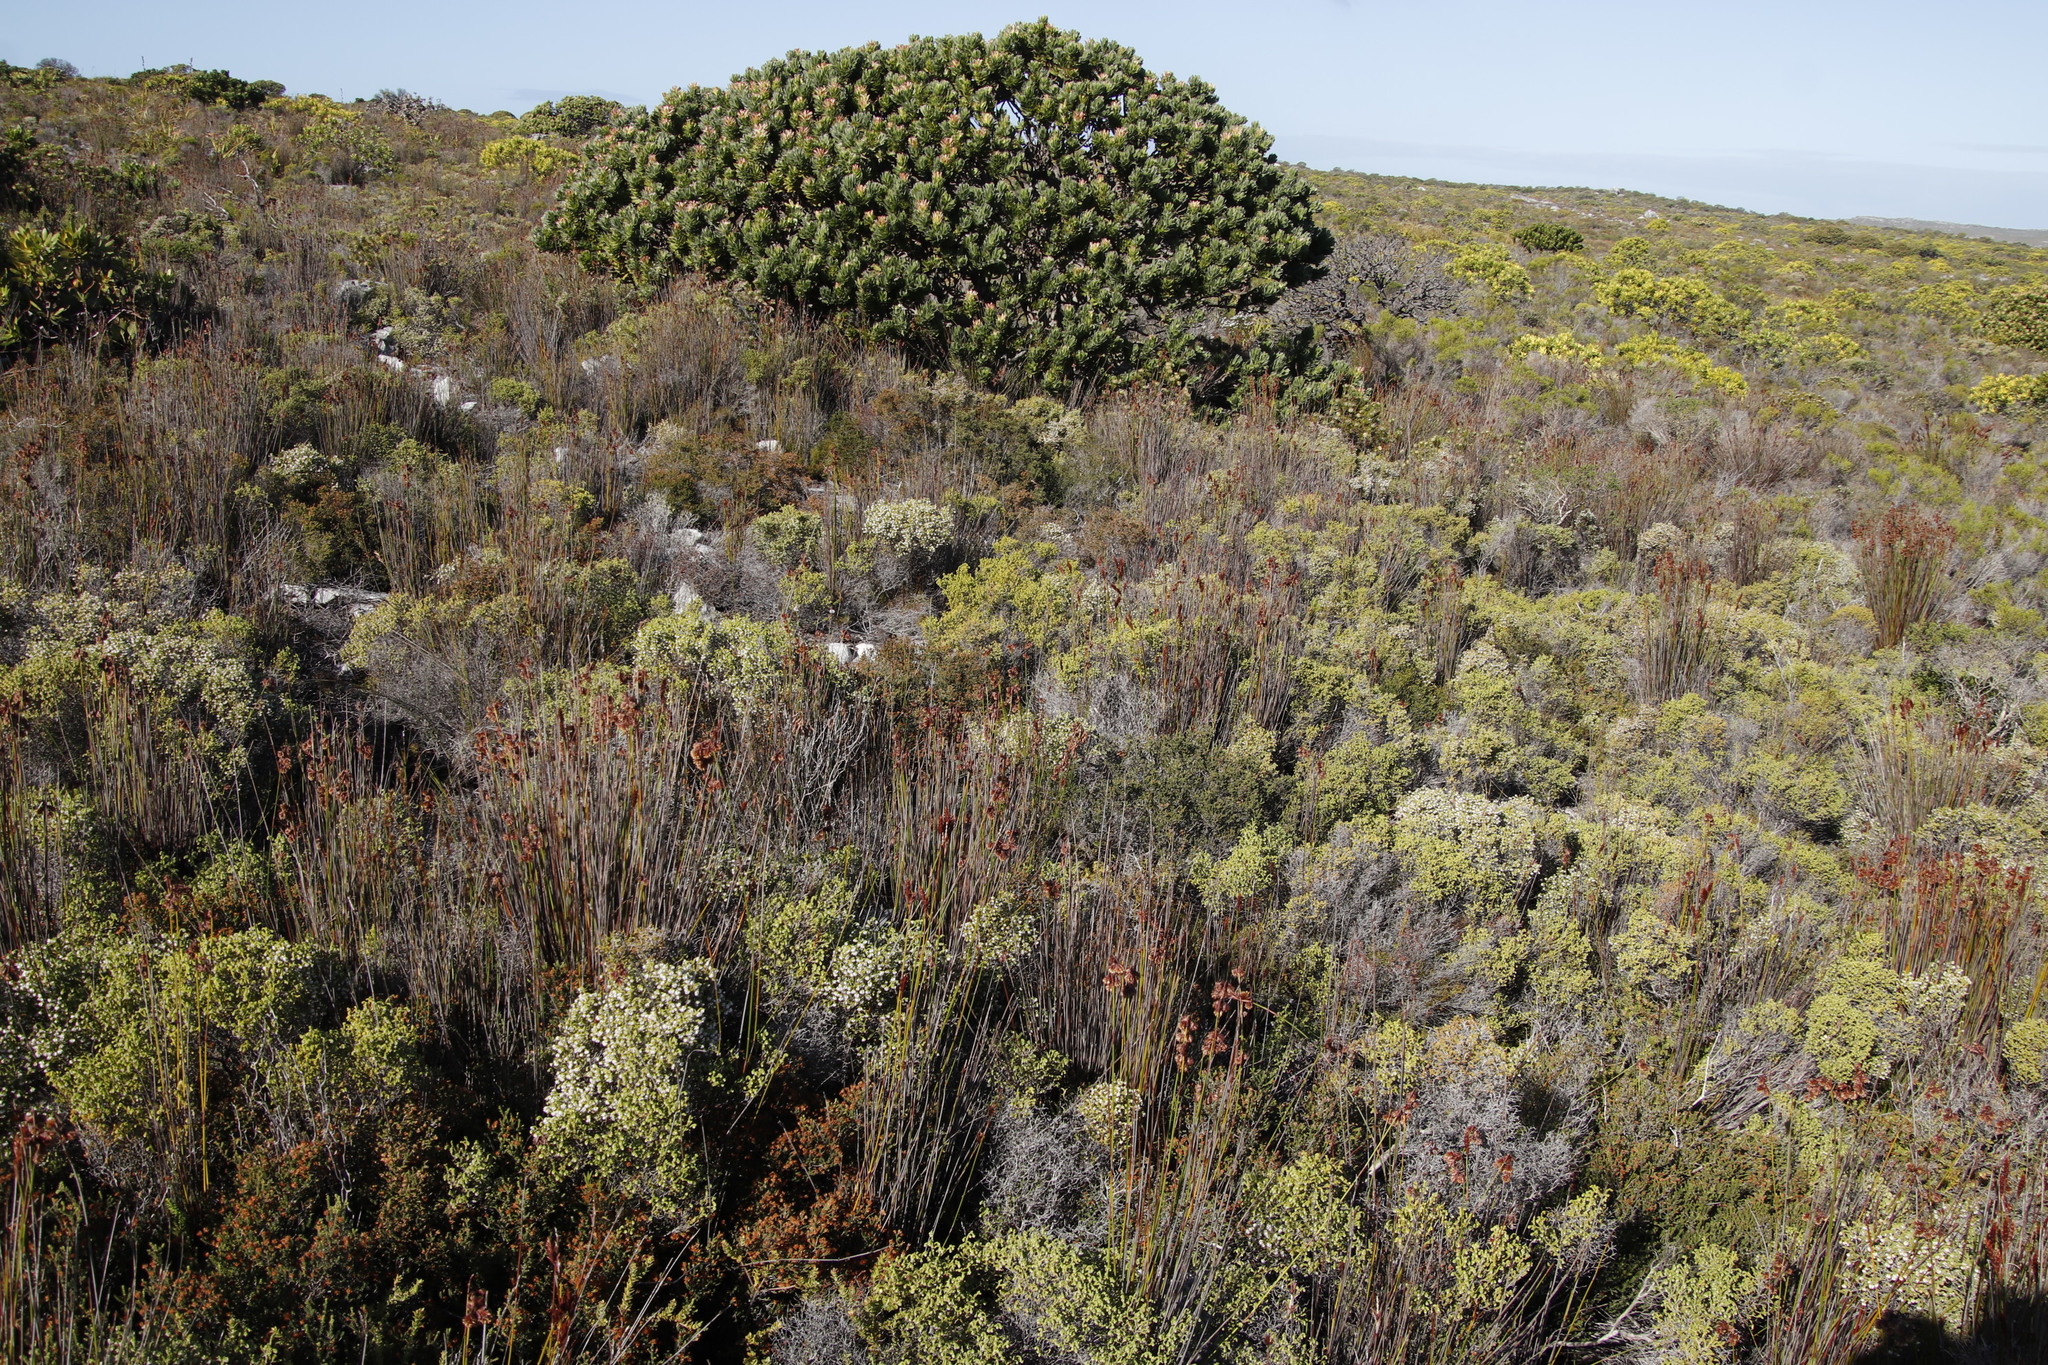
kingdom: Plantae
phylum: Tracheophyta
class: Magnoliopsida
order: Ericales
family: Ericaceae
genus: Erica
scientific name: Erica labialis
